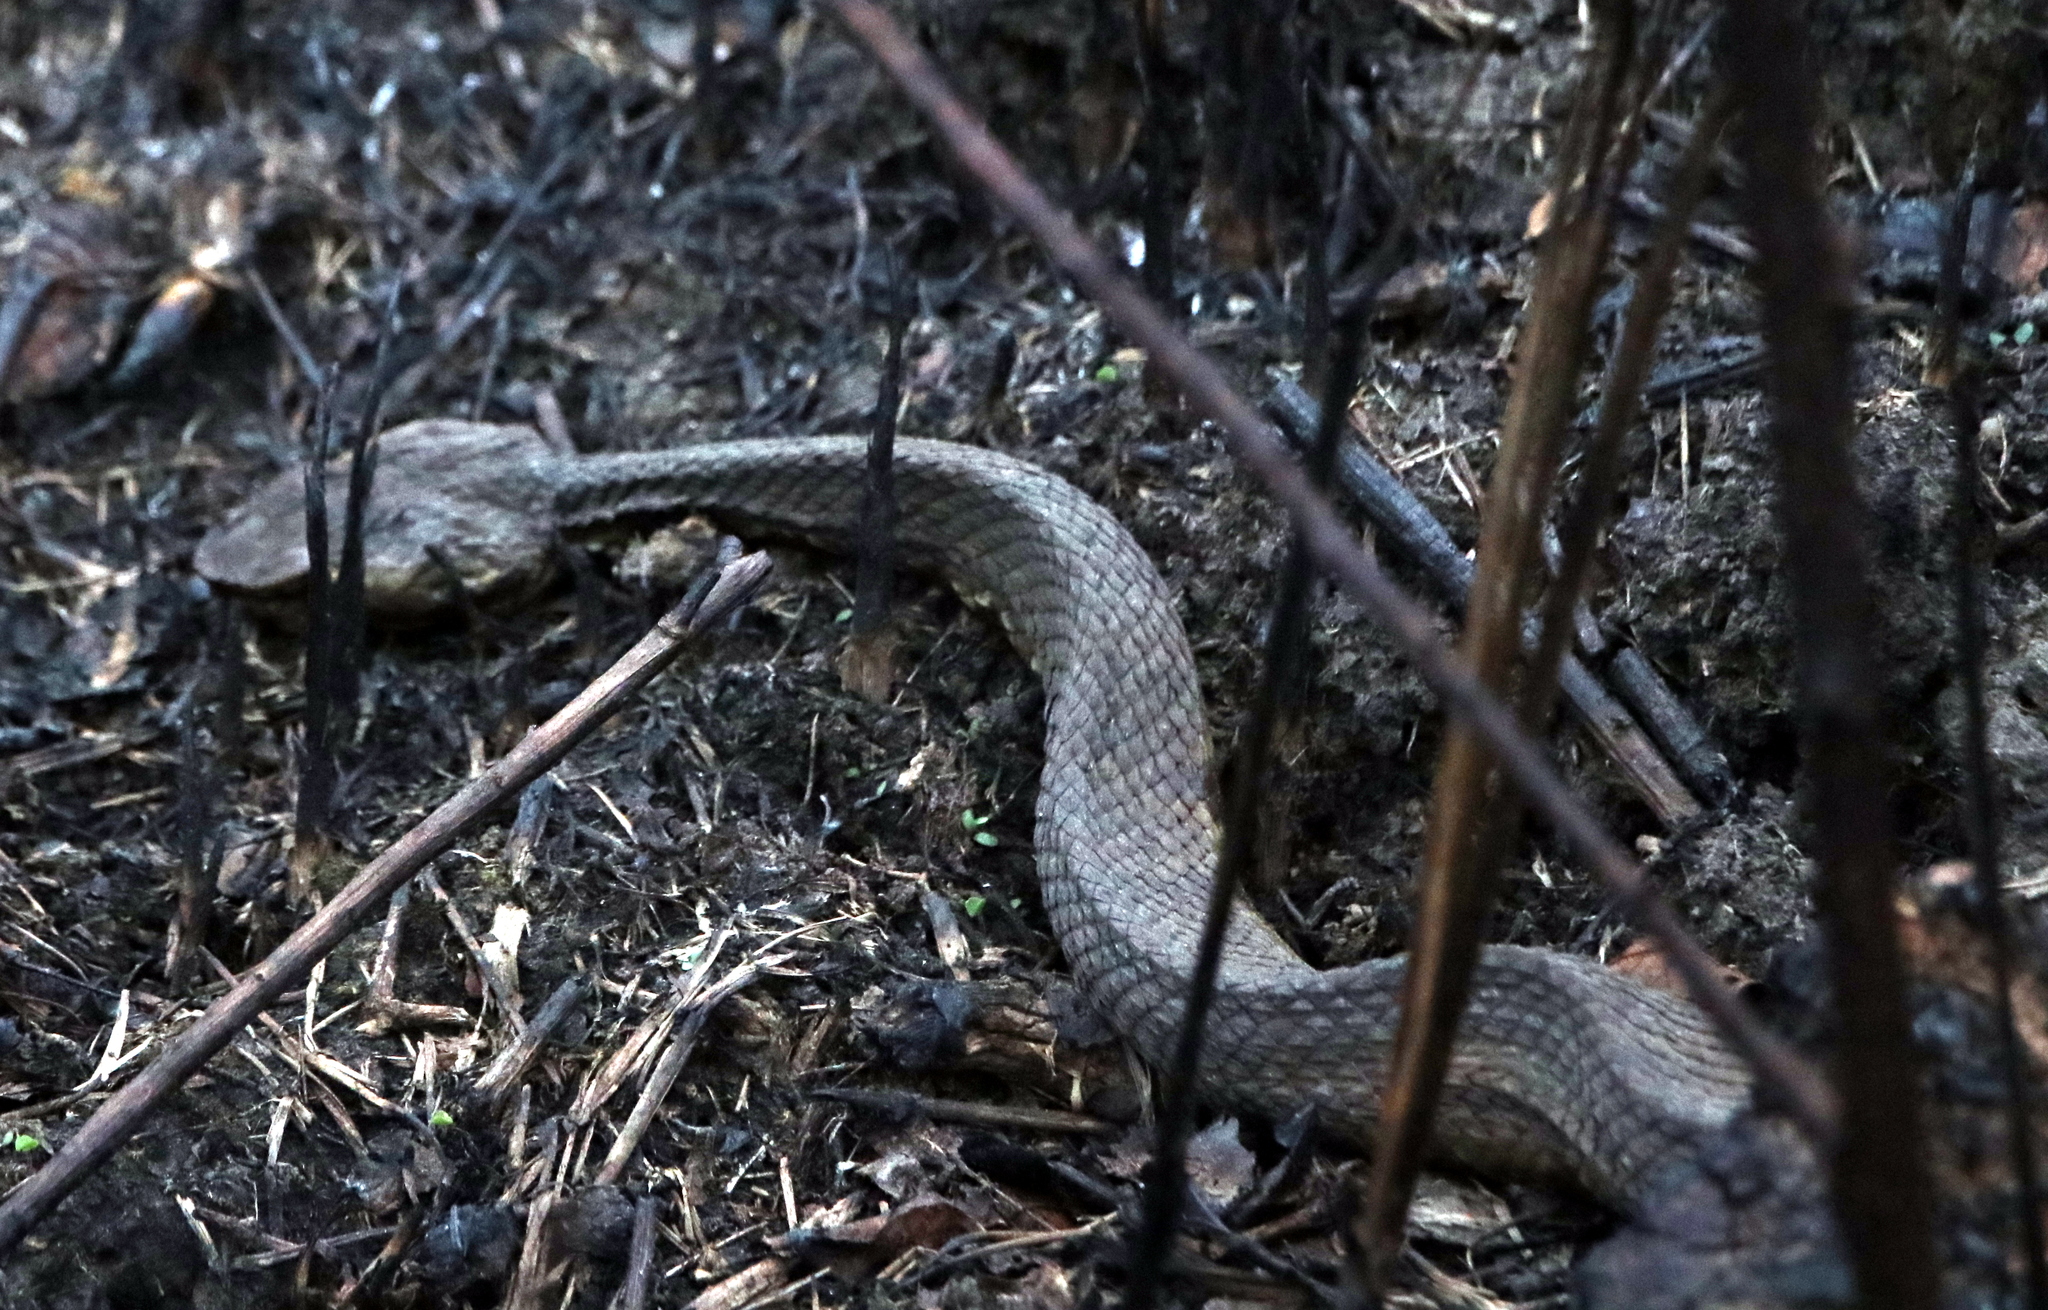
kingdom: Animalia
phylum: Chordata
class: Squamata
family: Viperidae
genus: Agkistrodon
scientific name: Agkistrodon piscivorus
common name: Cottonmouth
